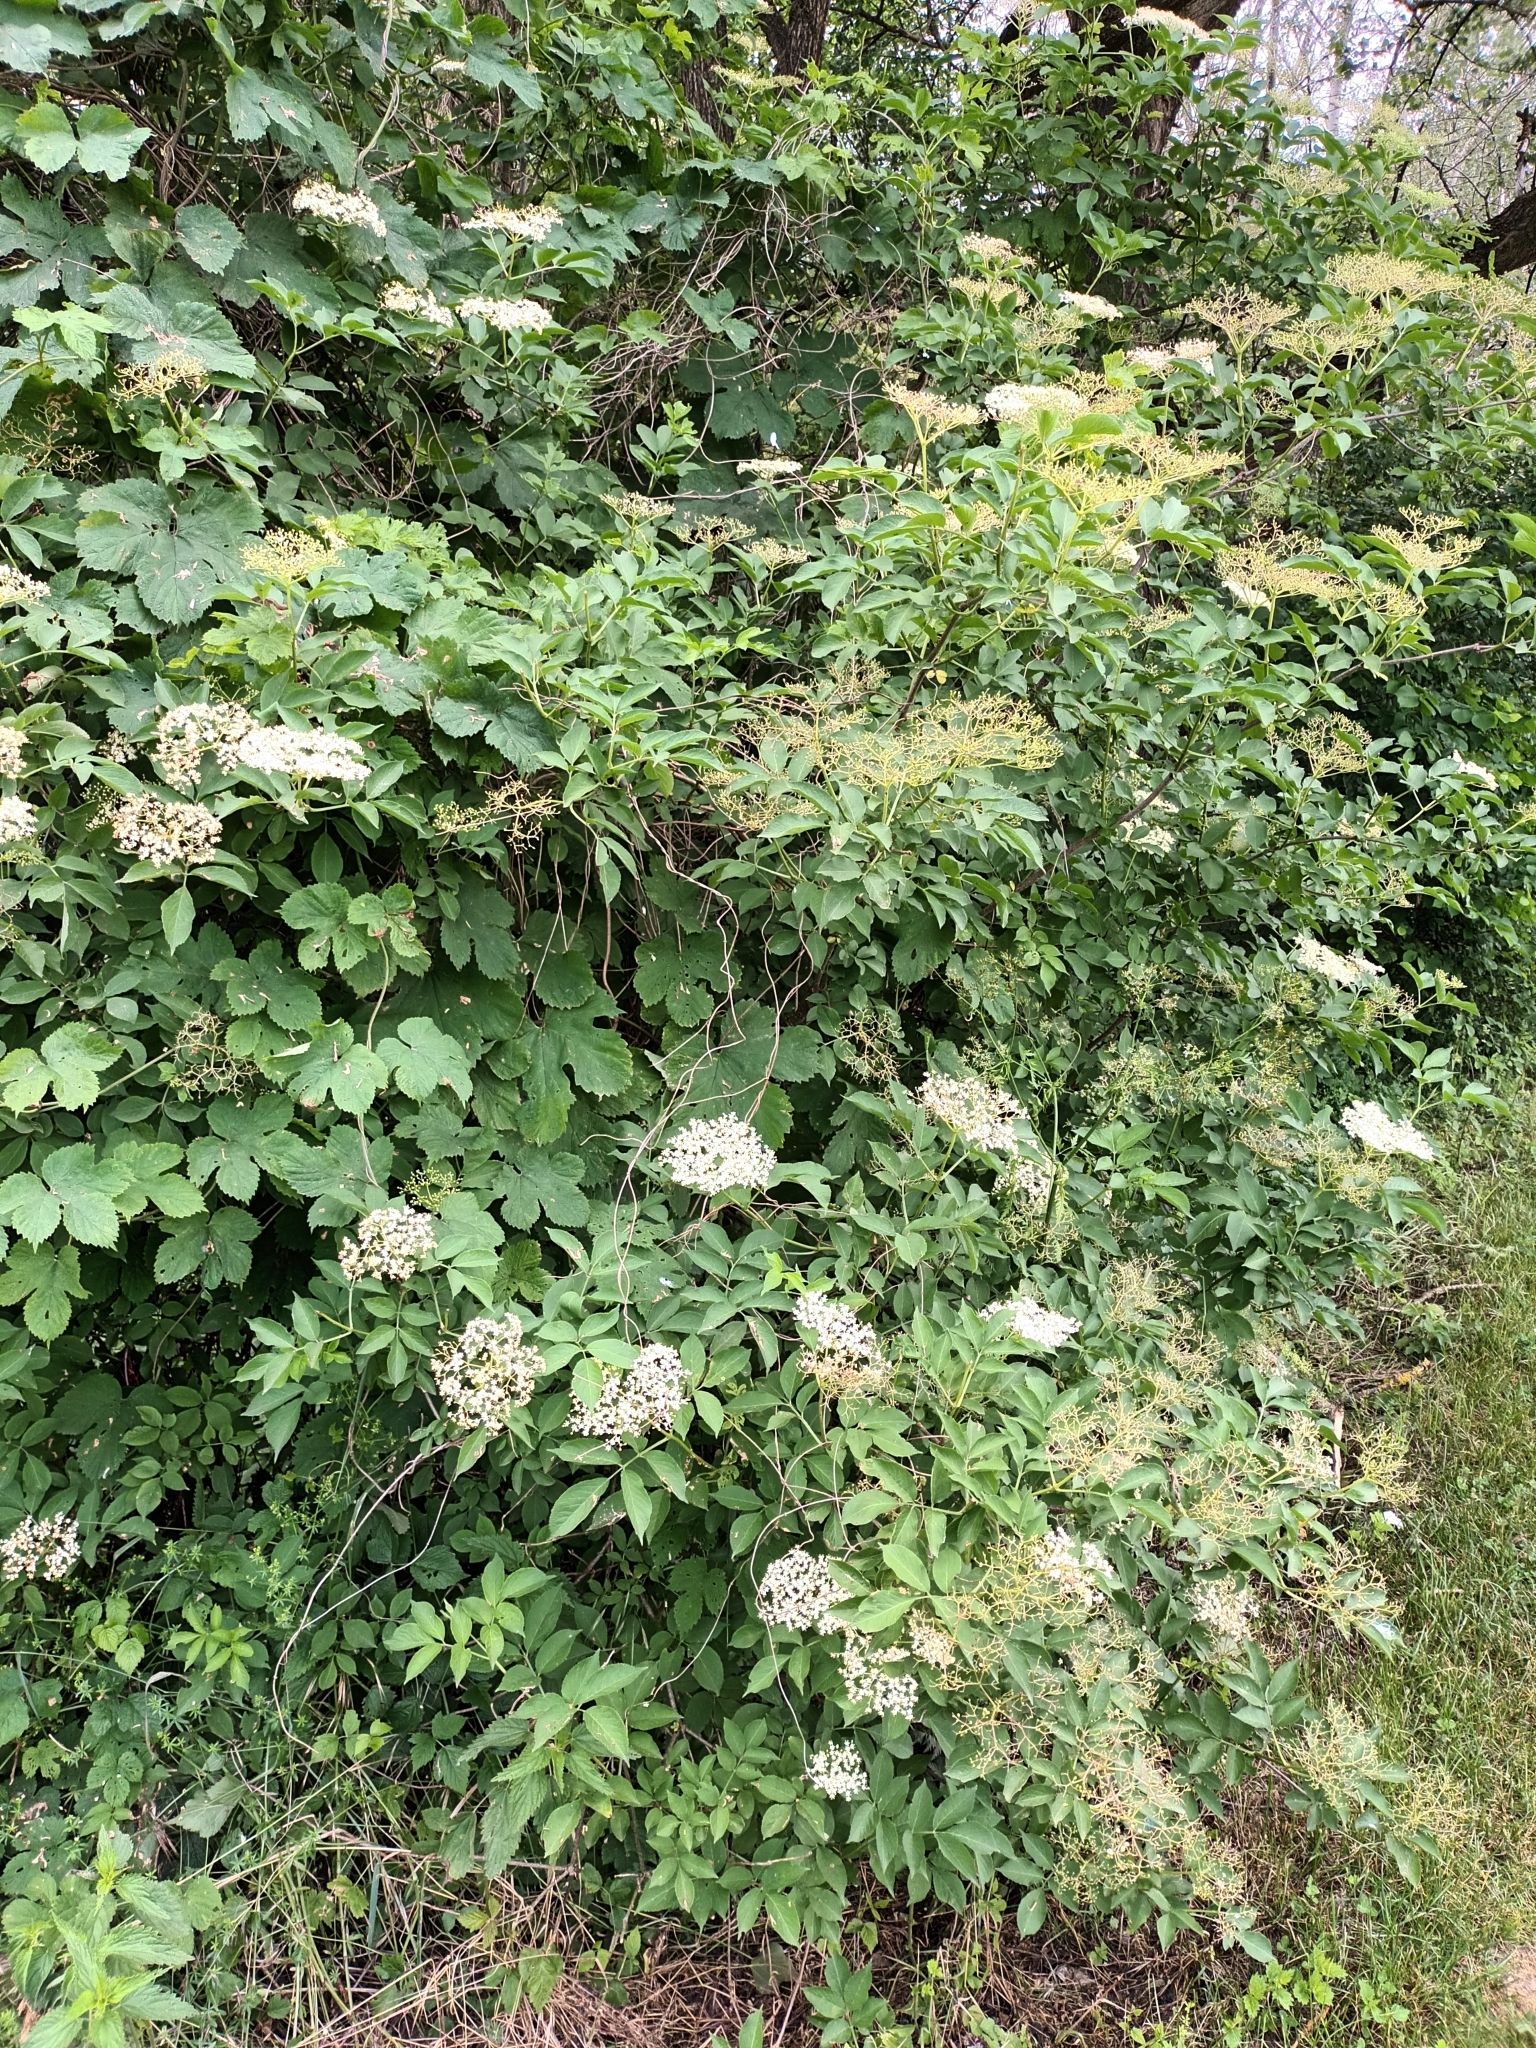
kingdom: Plantae
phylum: Tracheophyta
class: Magnoliopsida
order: Dipsacales
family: Viburnaceae
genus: Sambucus
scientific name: Sambucus nigra
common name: Elder
